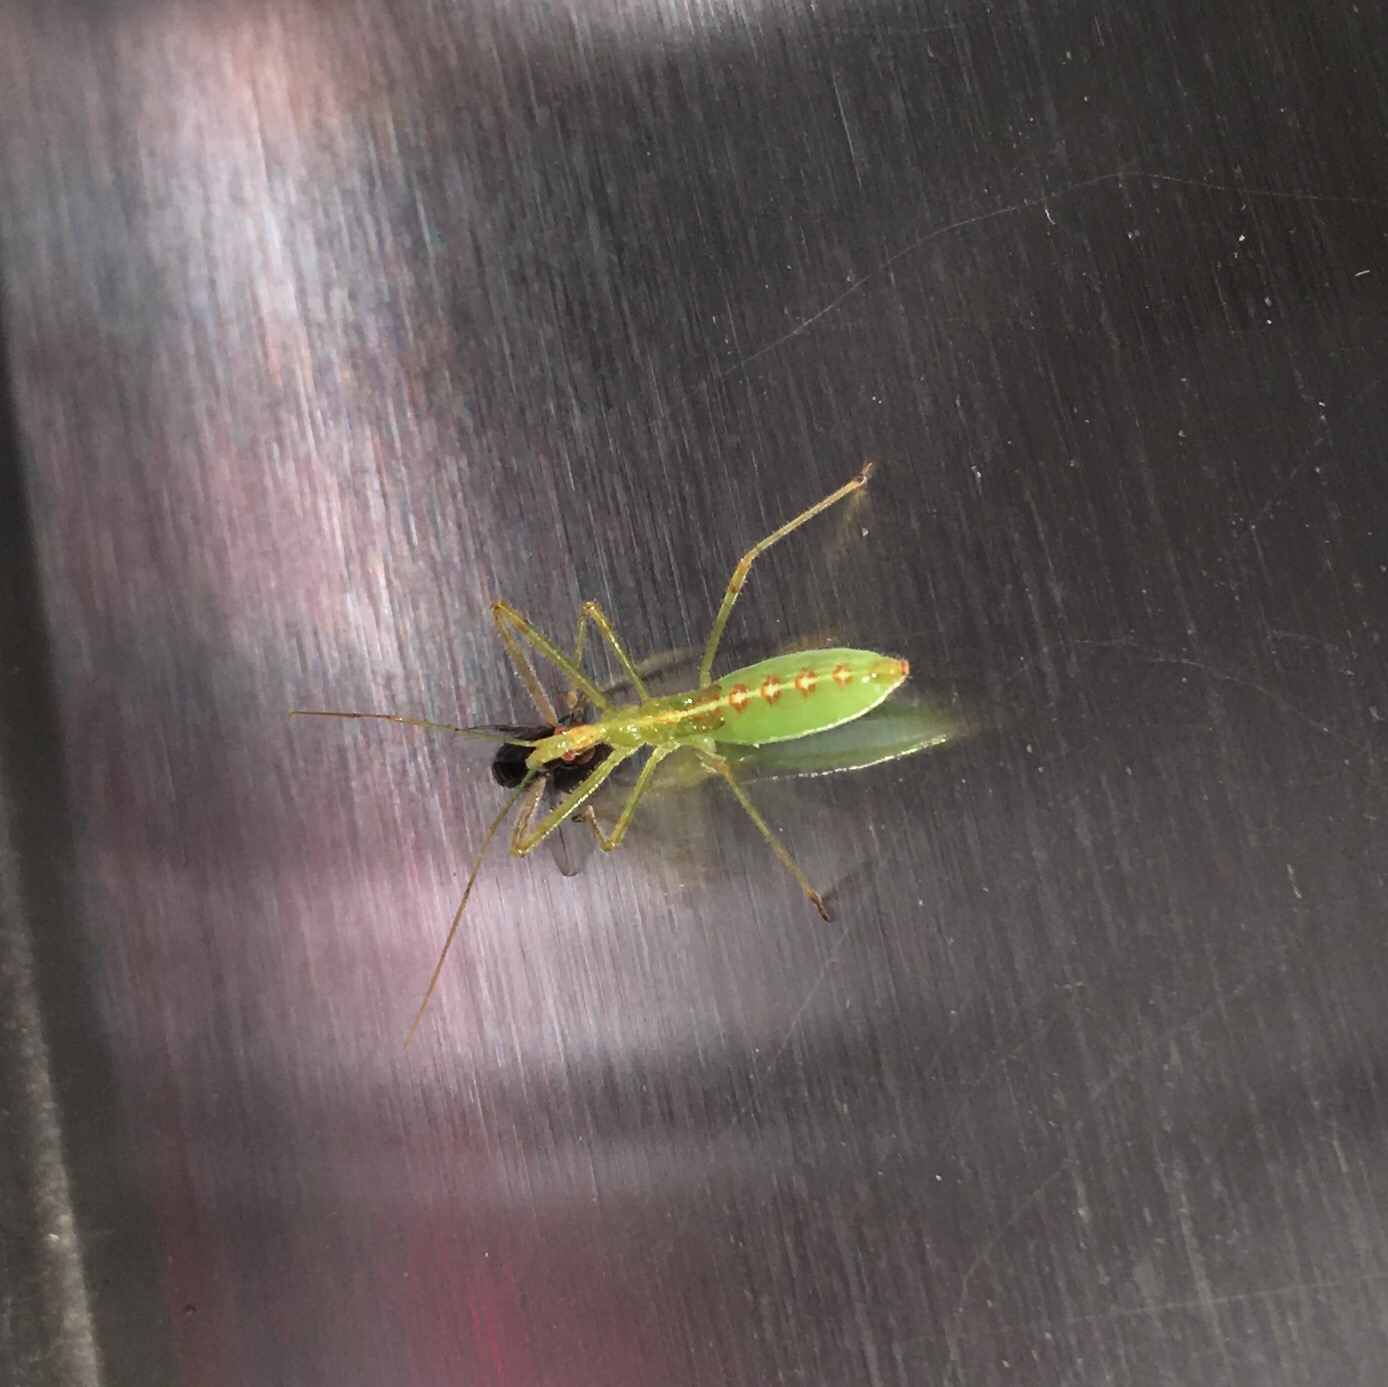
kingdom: Animalia
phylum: Arthropoda
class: Insecta
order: Hemiptera
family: Reduviidae
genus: Zelus
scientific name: Zelus luridus
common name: Pale green assassin bug
